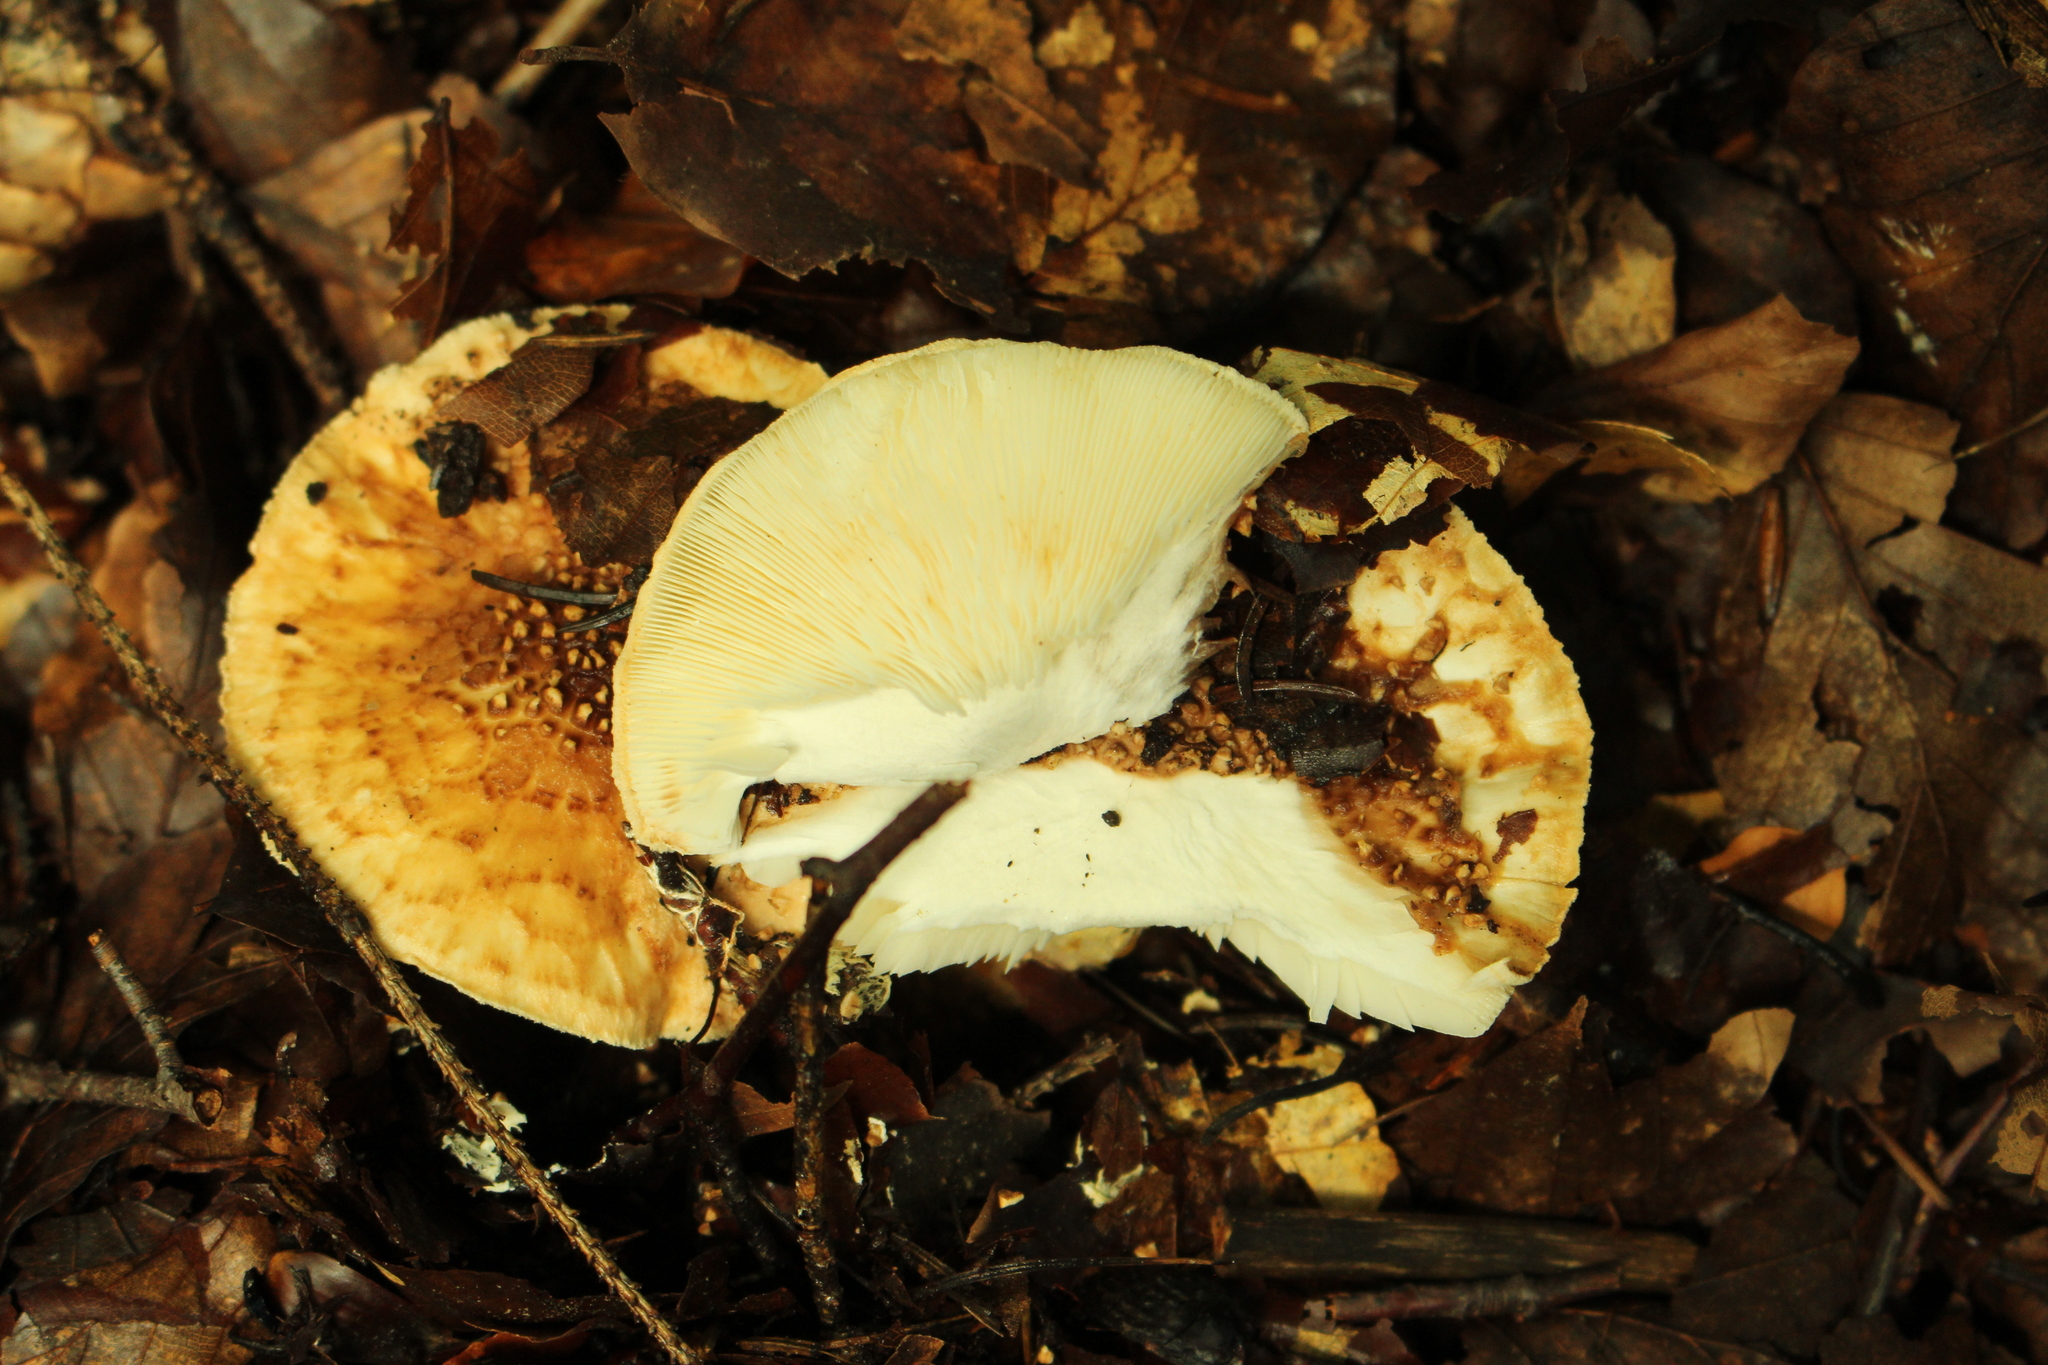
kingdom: Fungi
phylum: Basidiomycota
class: Agaricomycetes
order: Agaricales
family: Agaricaceae
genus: Echinoderma
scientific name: Echinoderma asperum
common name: Freckled dapperling
